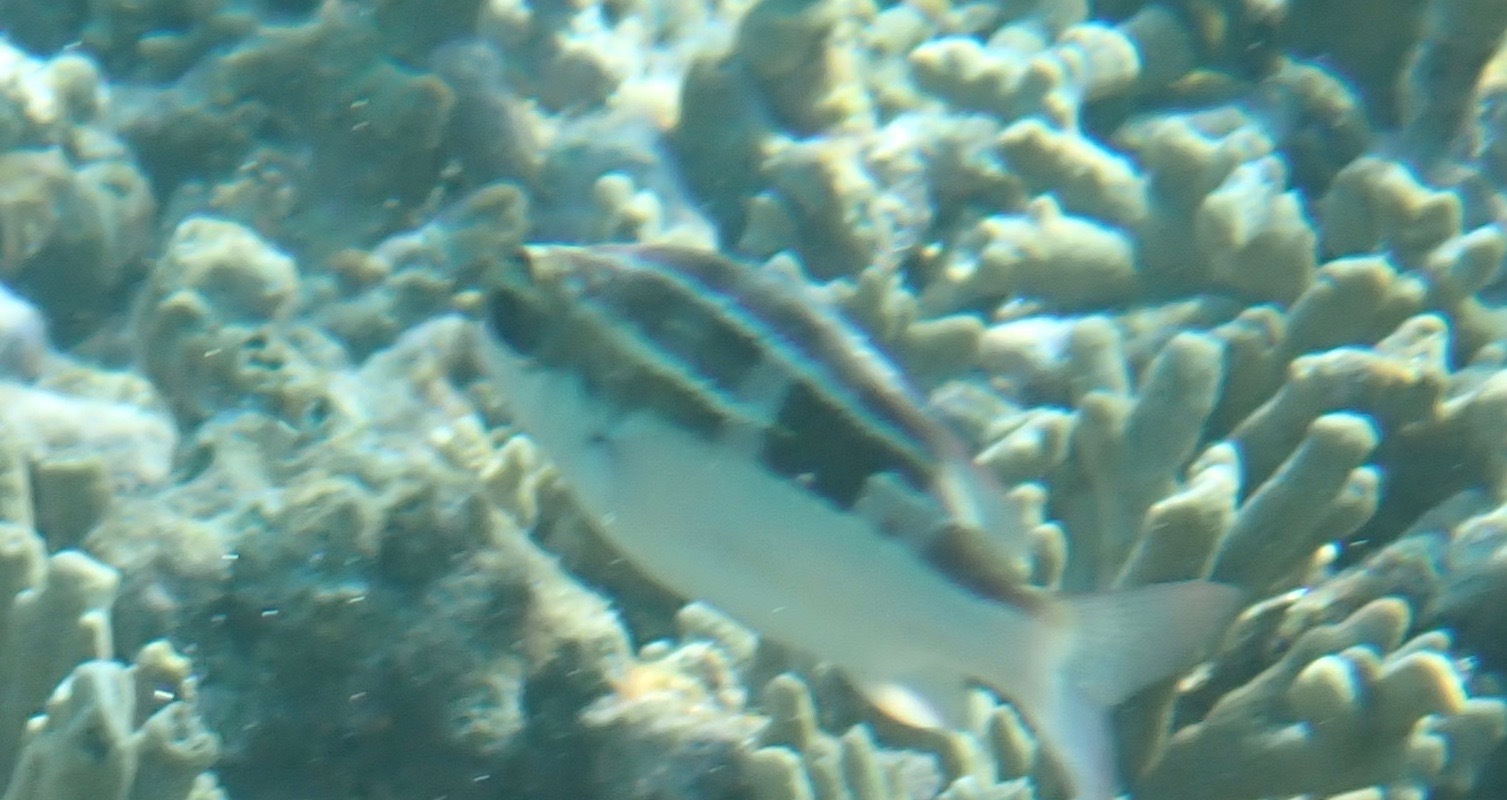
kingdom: Animalia
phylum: Chordata
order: Perciformes
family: Nemipteridae
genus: Scolopsis
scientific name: Scolopsis lineata
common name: Striped monocle bream
